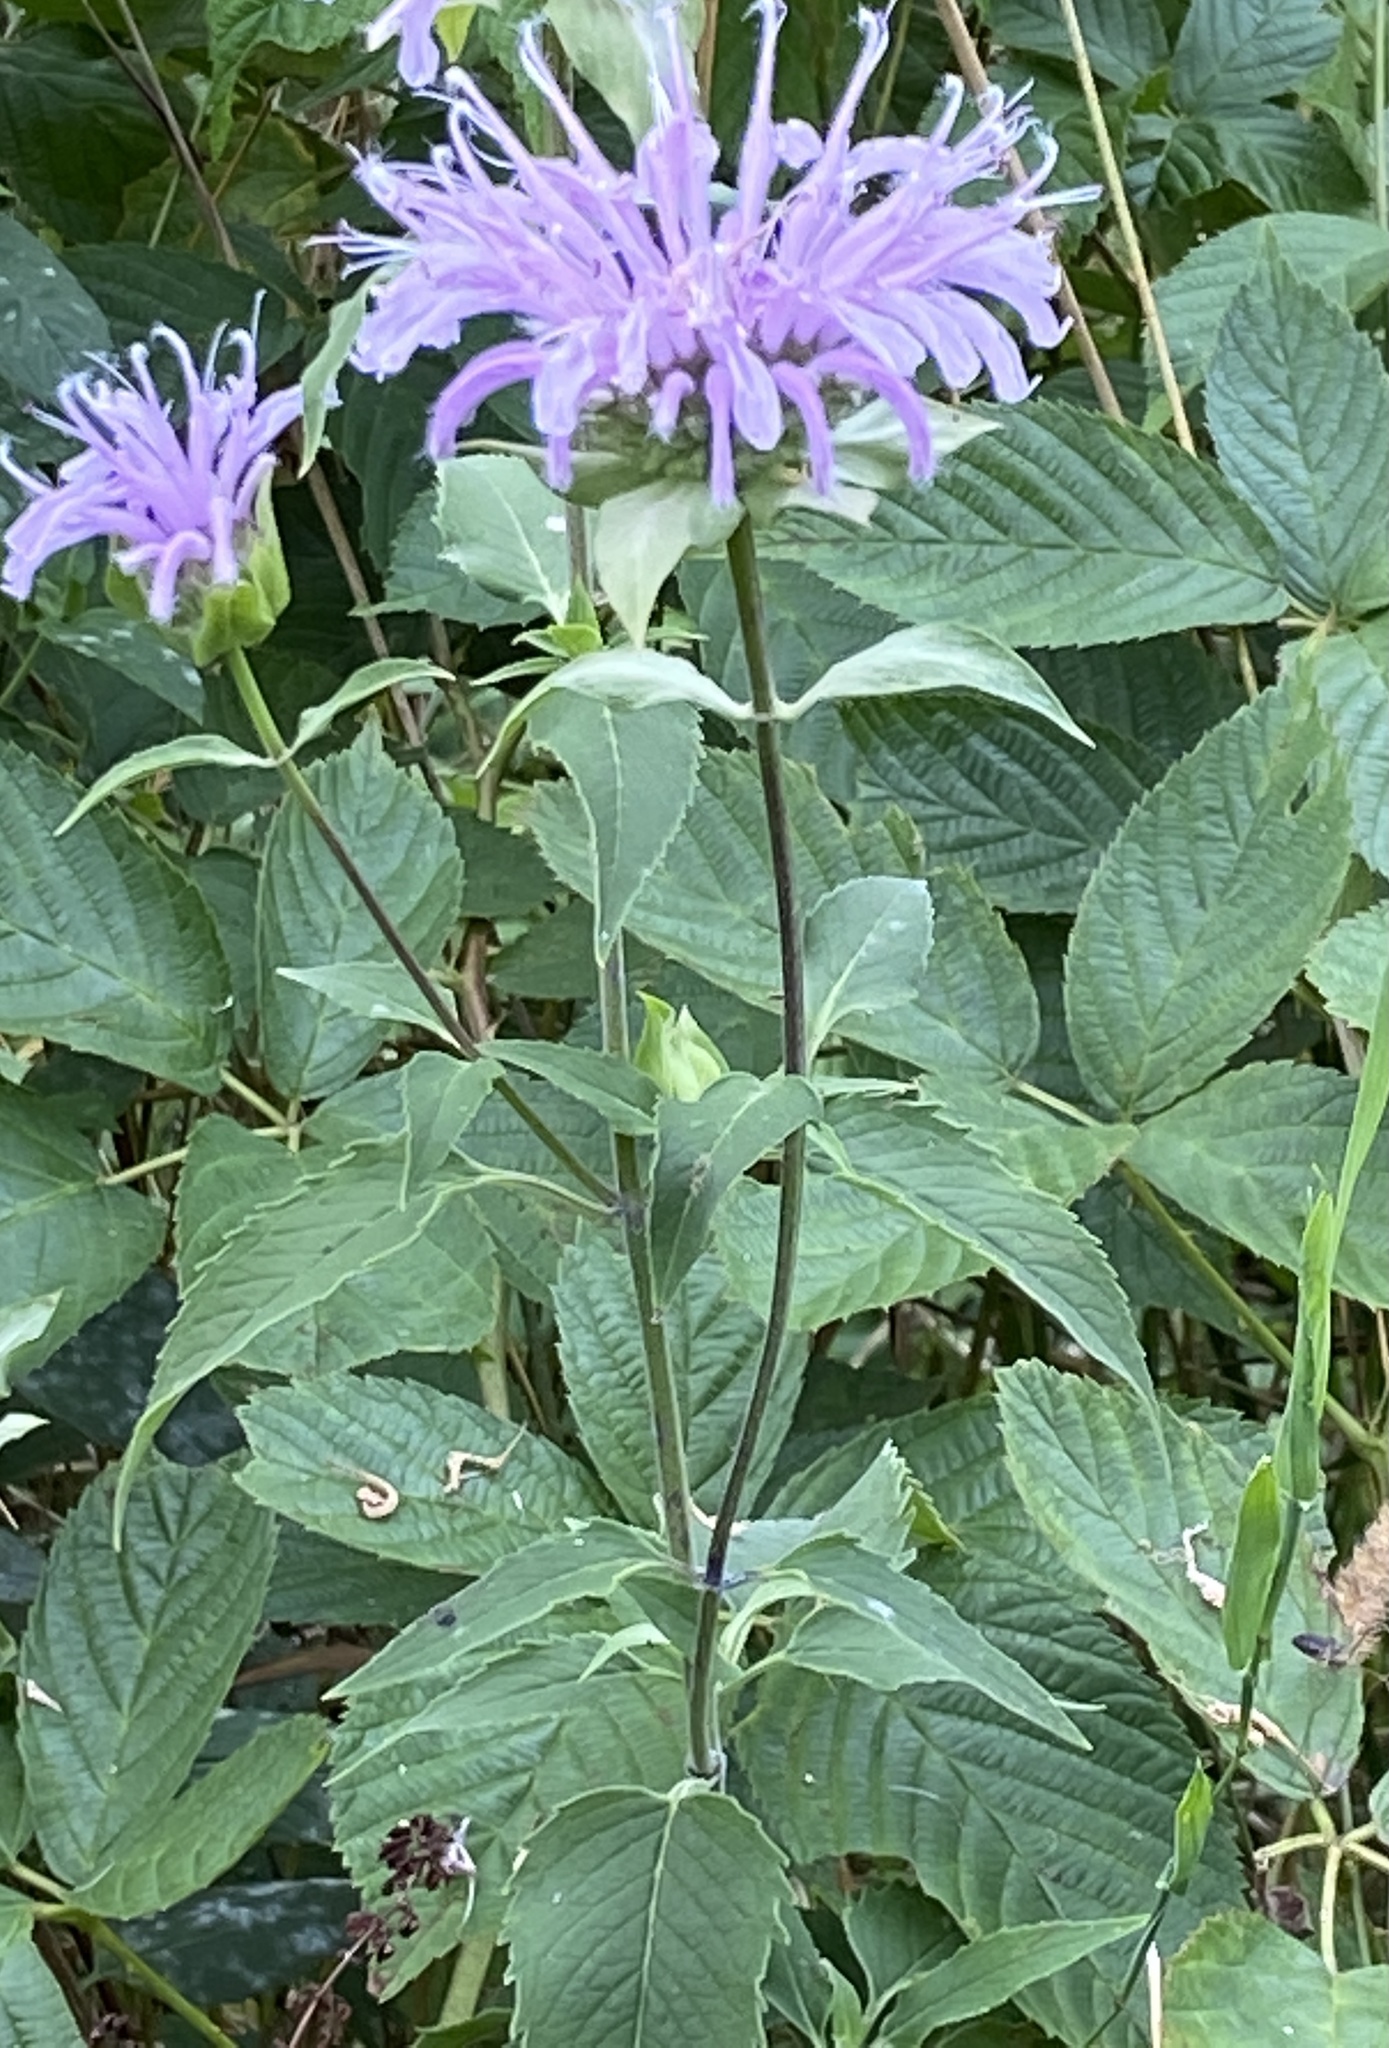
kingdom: Plantae
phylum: Tracheophyta
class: Magnoliopsida
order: Lamiales
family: Lamiaceae
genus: Monarda
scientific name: Monarda fistulosa
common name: Purple beebalm
